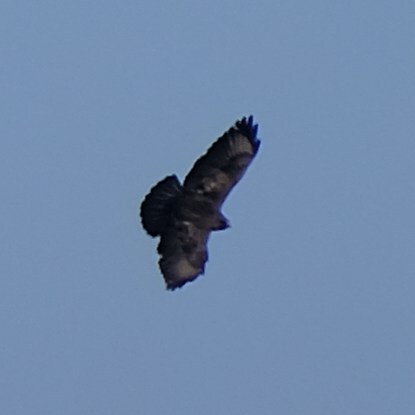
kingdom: Animalia
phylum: Chordata
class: Aves
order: Accipitriformes
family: Accipitridae
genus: Buteo
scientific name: Buteo buteo
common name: Common buzzard
